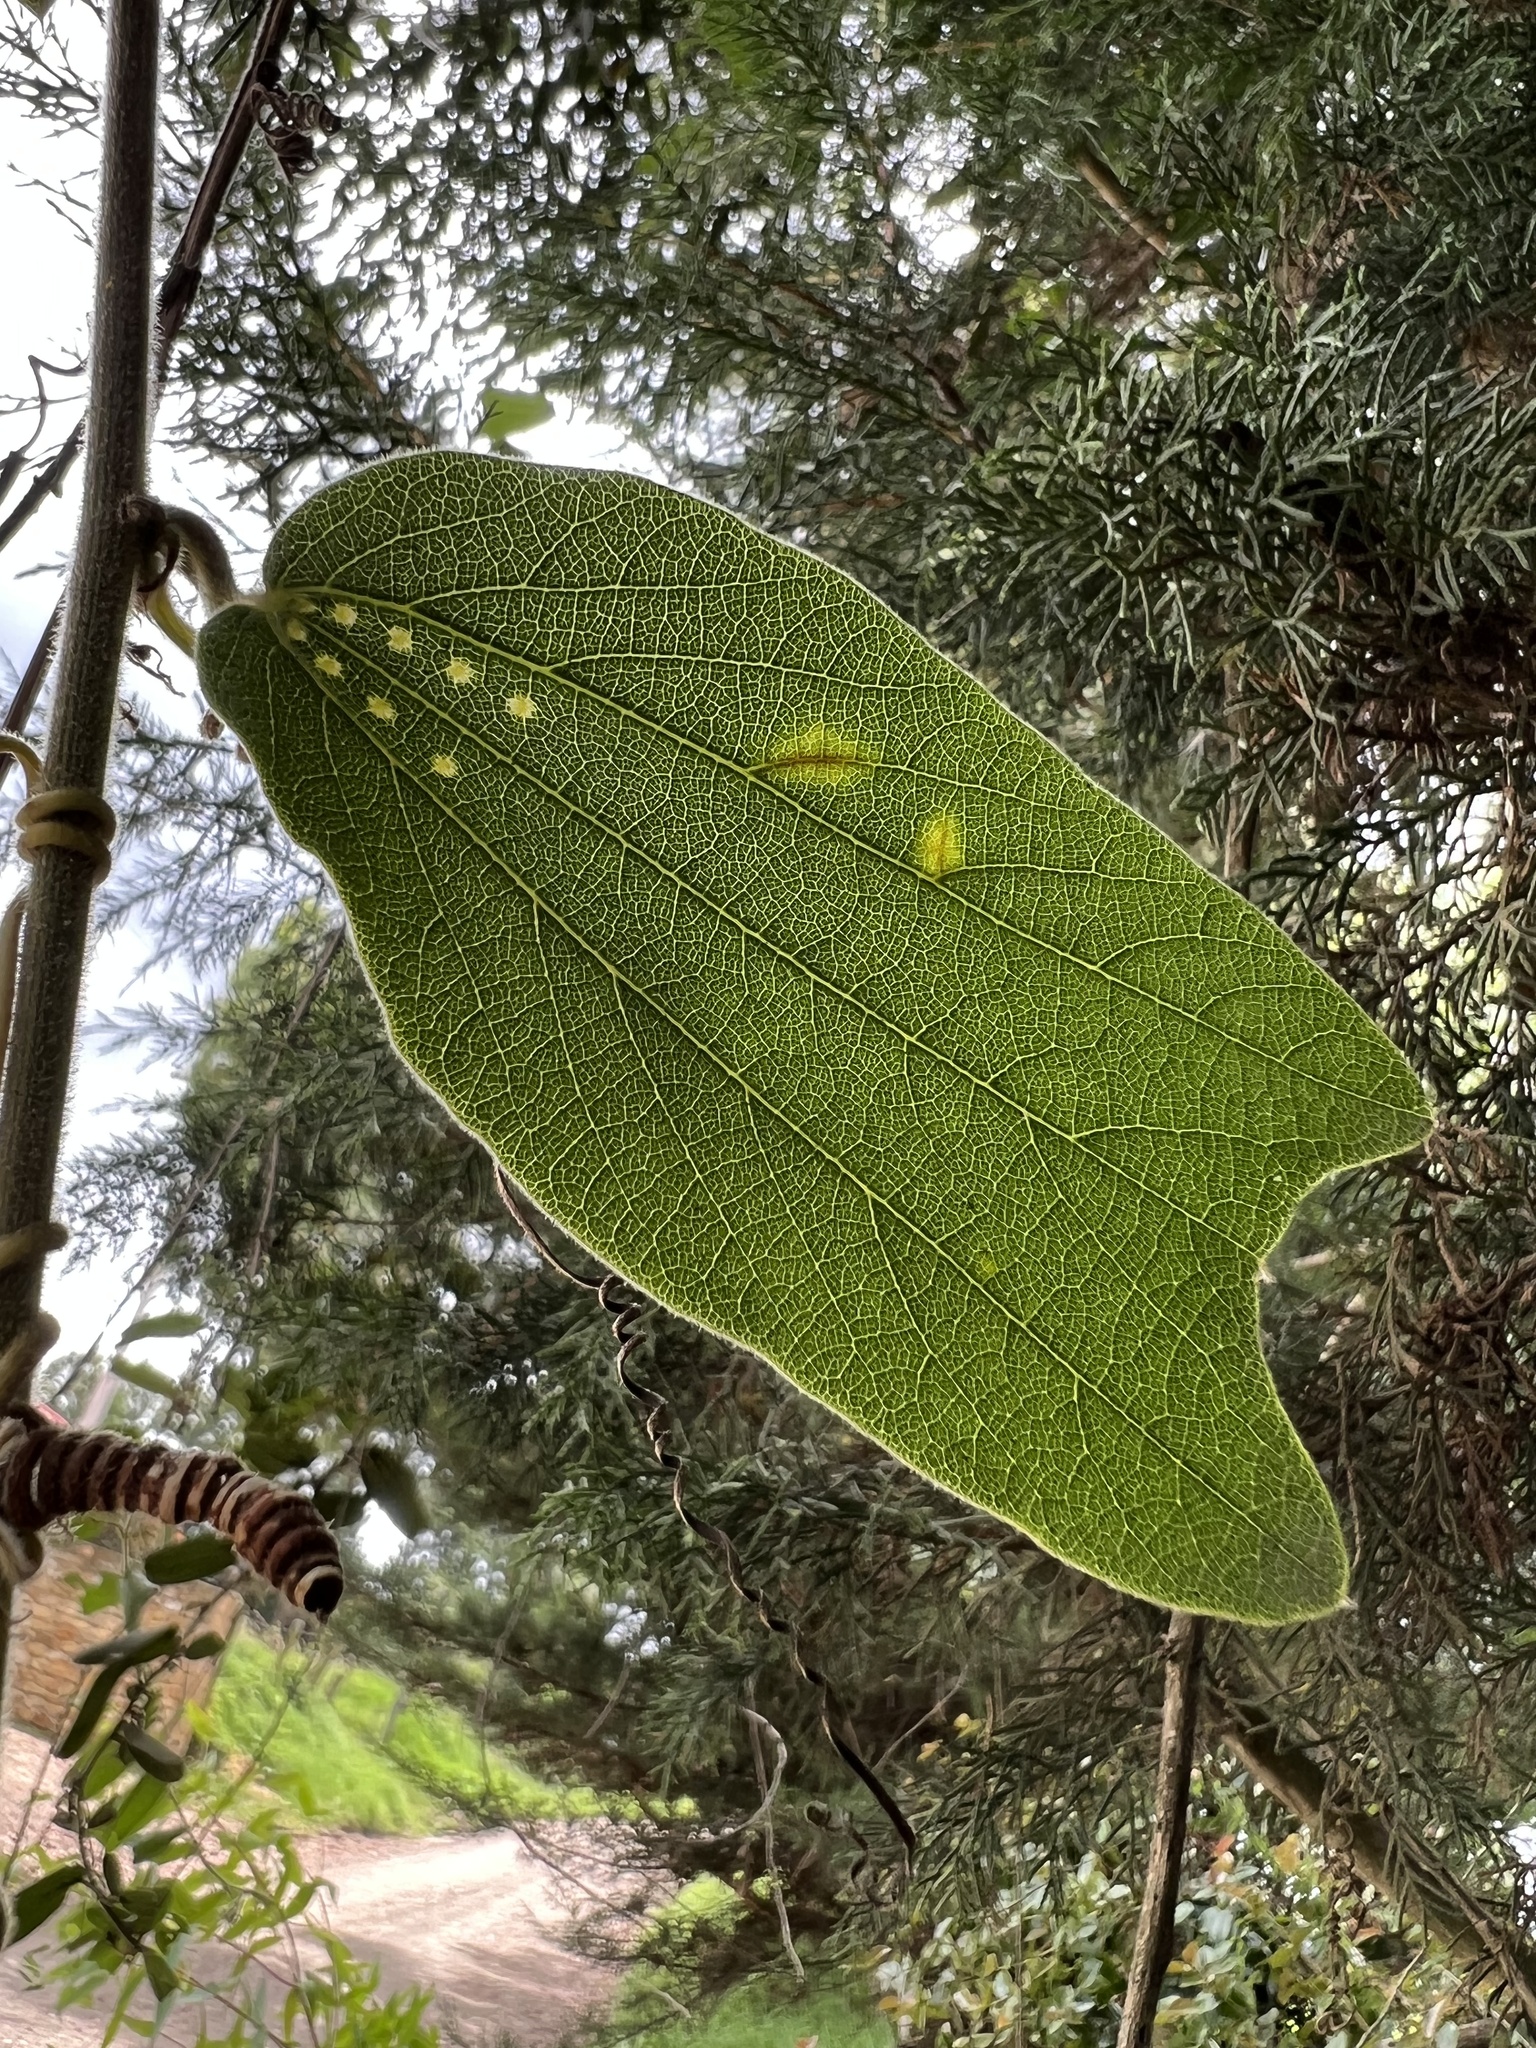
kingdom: Plantae
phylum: Tracheophyta
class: Magnoliopsida
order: Malpighiales
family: Passifloraceae
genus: Passiflora
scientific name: Passiflora bogotensis
